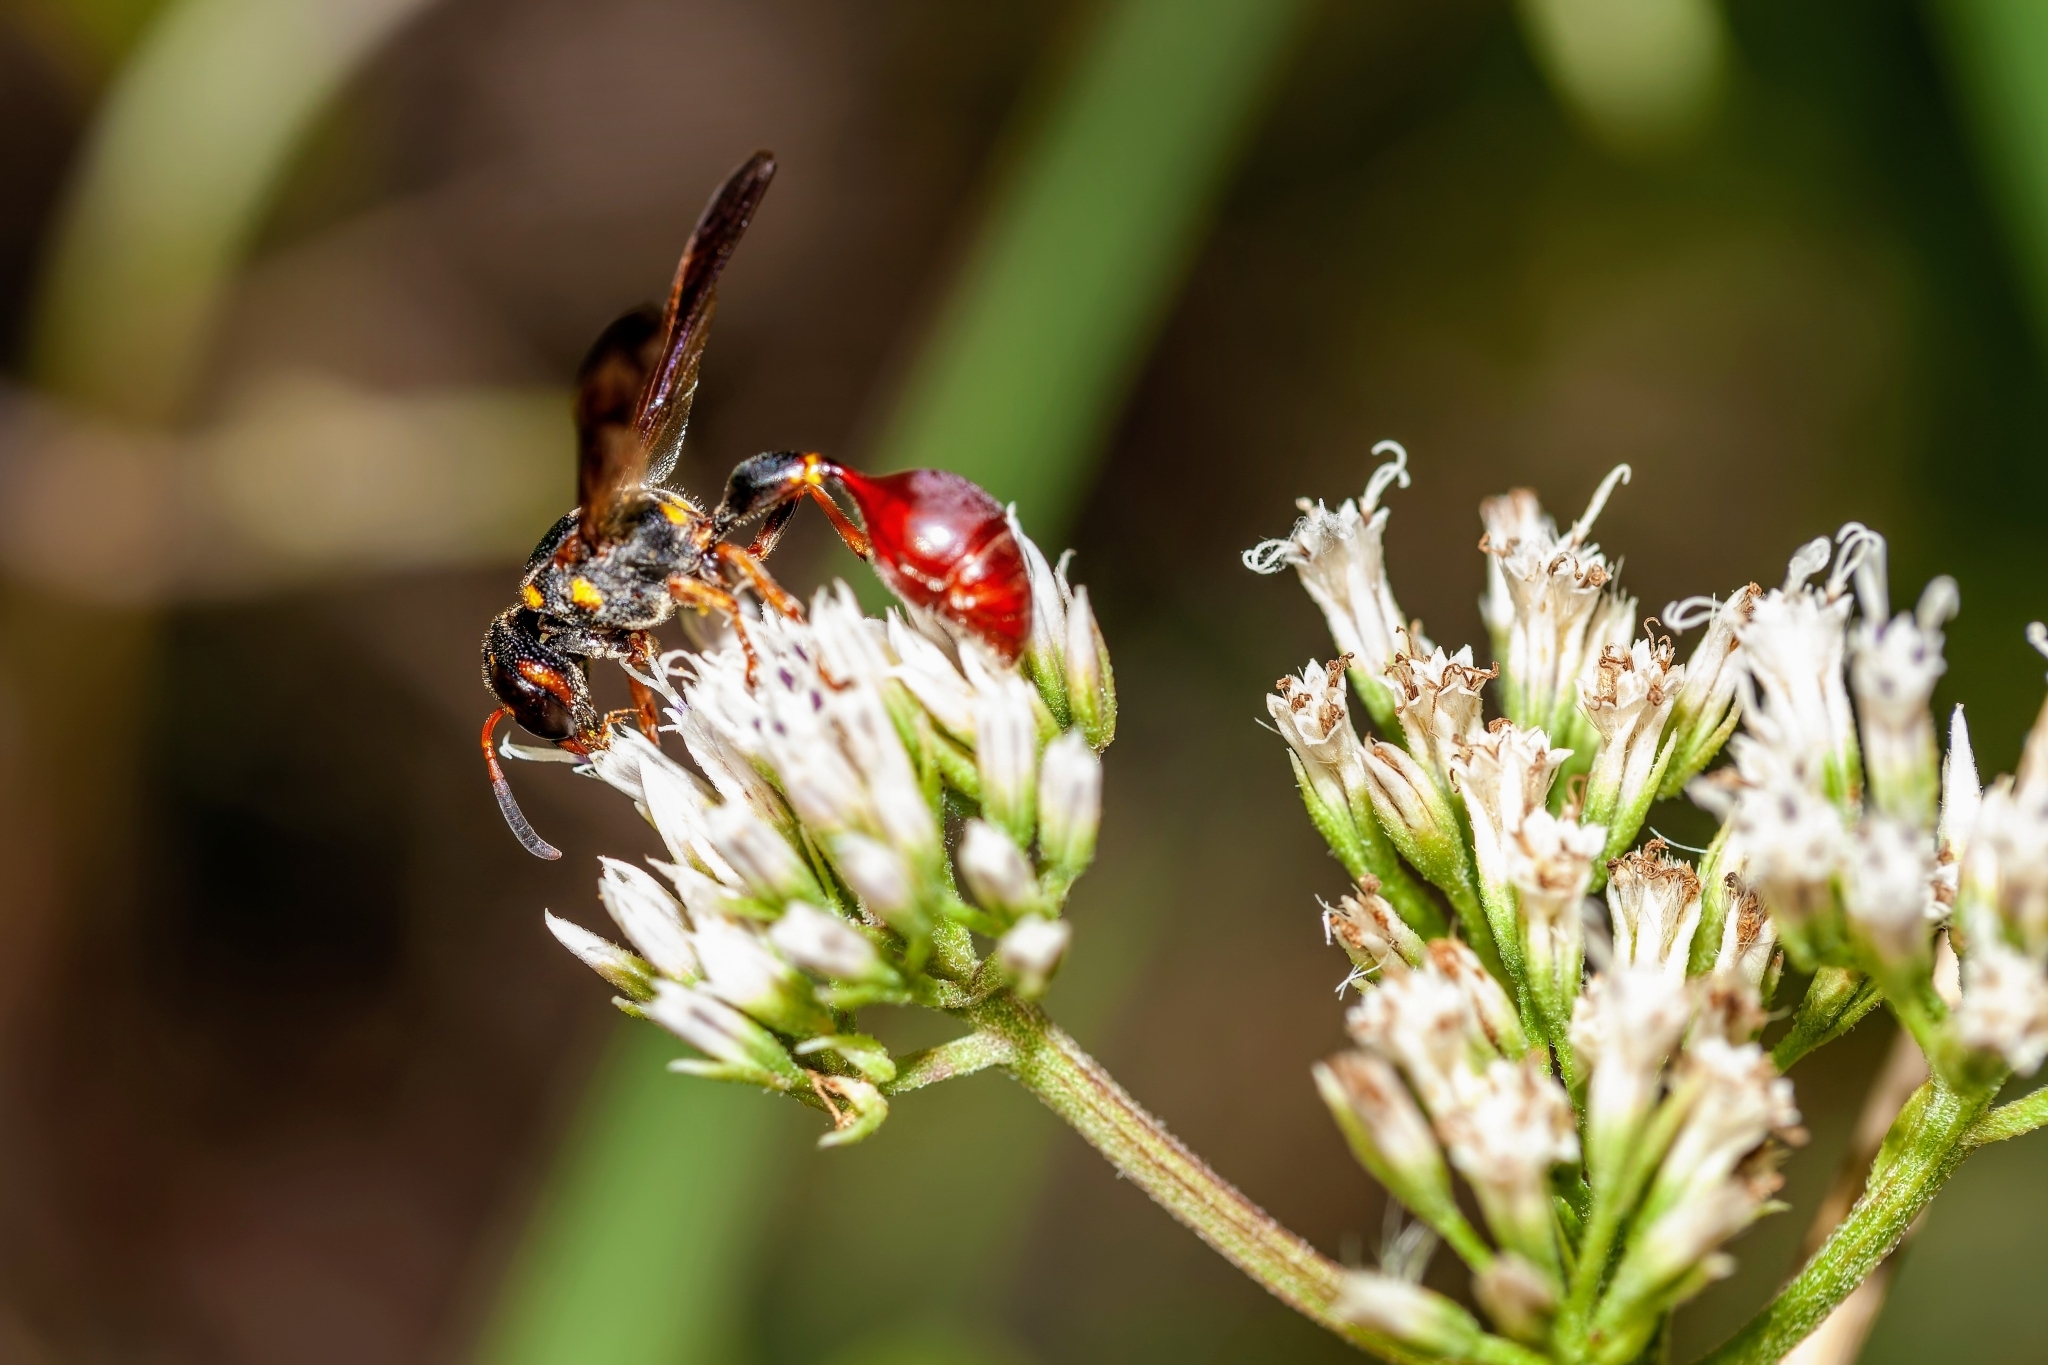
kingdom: Animalia
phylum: Arthropoda
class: Insecta
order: Hymenoptera
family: Eumenidae
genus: Zethus
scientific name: Zethus slossonae
